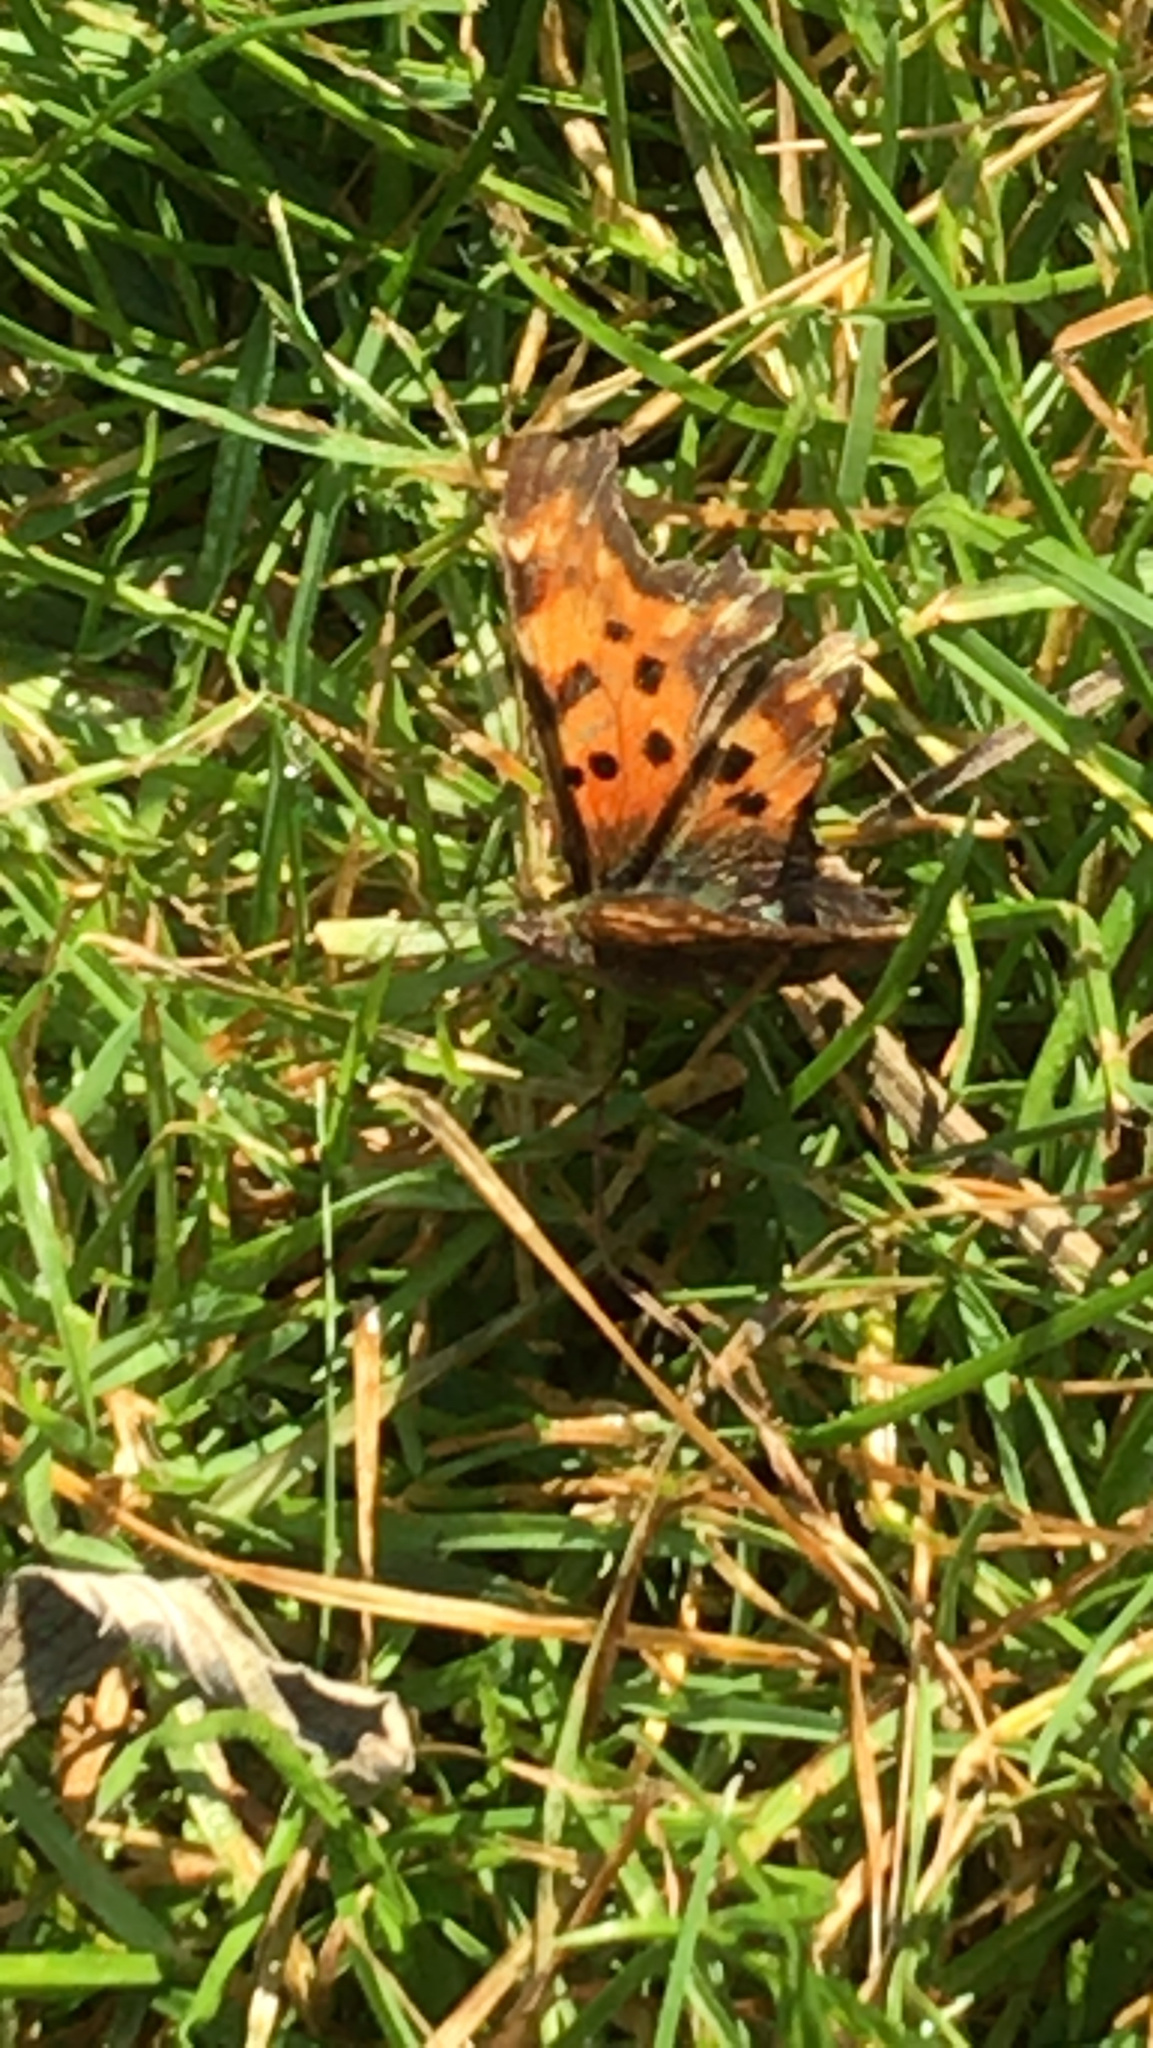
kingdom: Animalia
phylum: Arthropoda
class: Insecta
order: Lepidoptera
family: Nymphalidae
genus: Polygonia
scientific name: Polygonia c-album
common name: Comma
